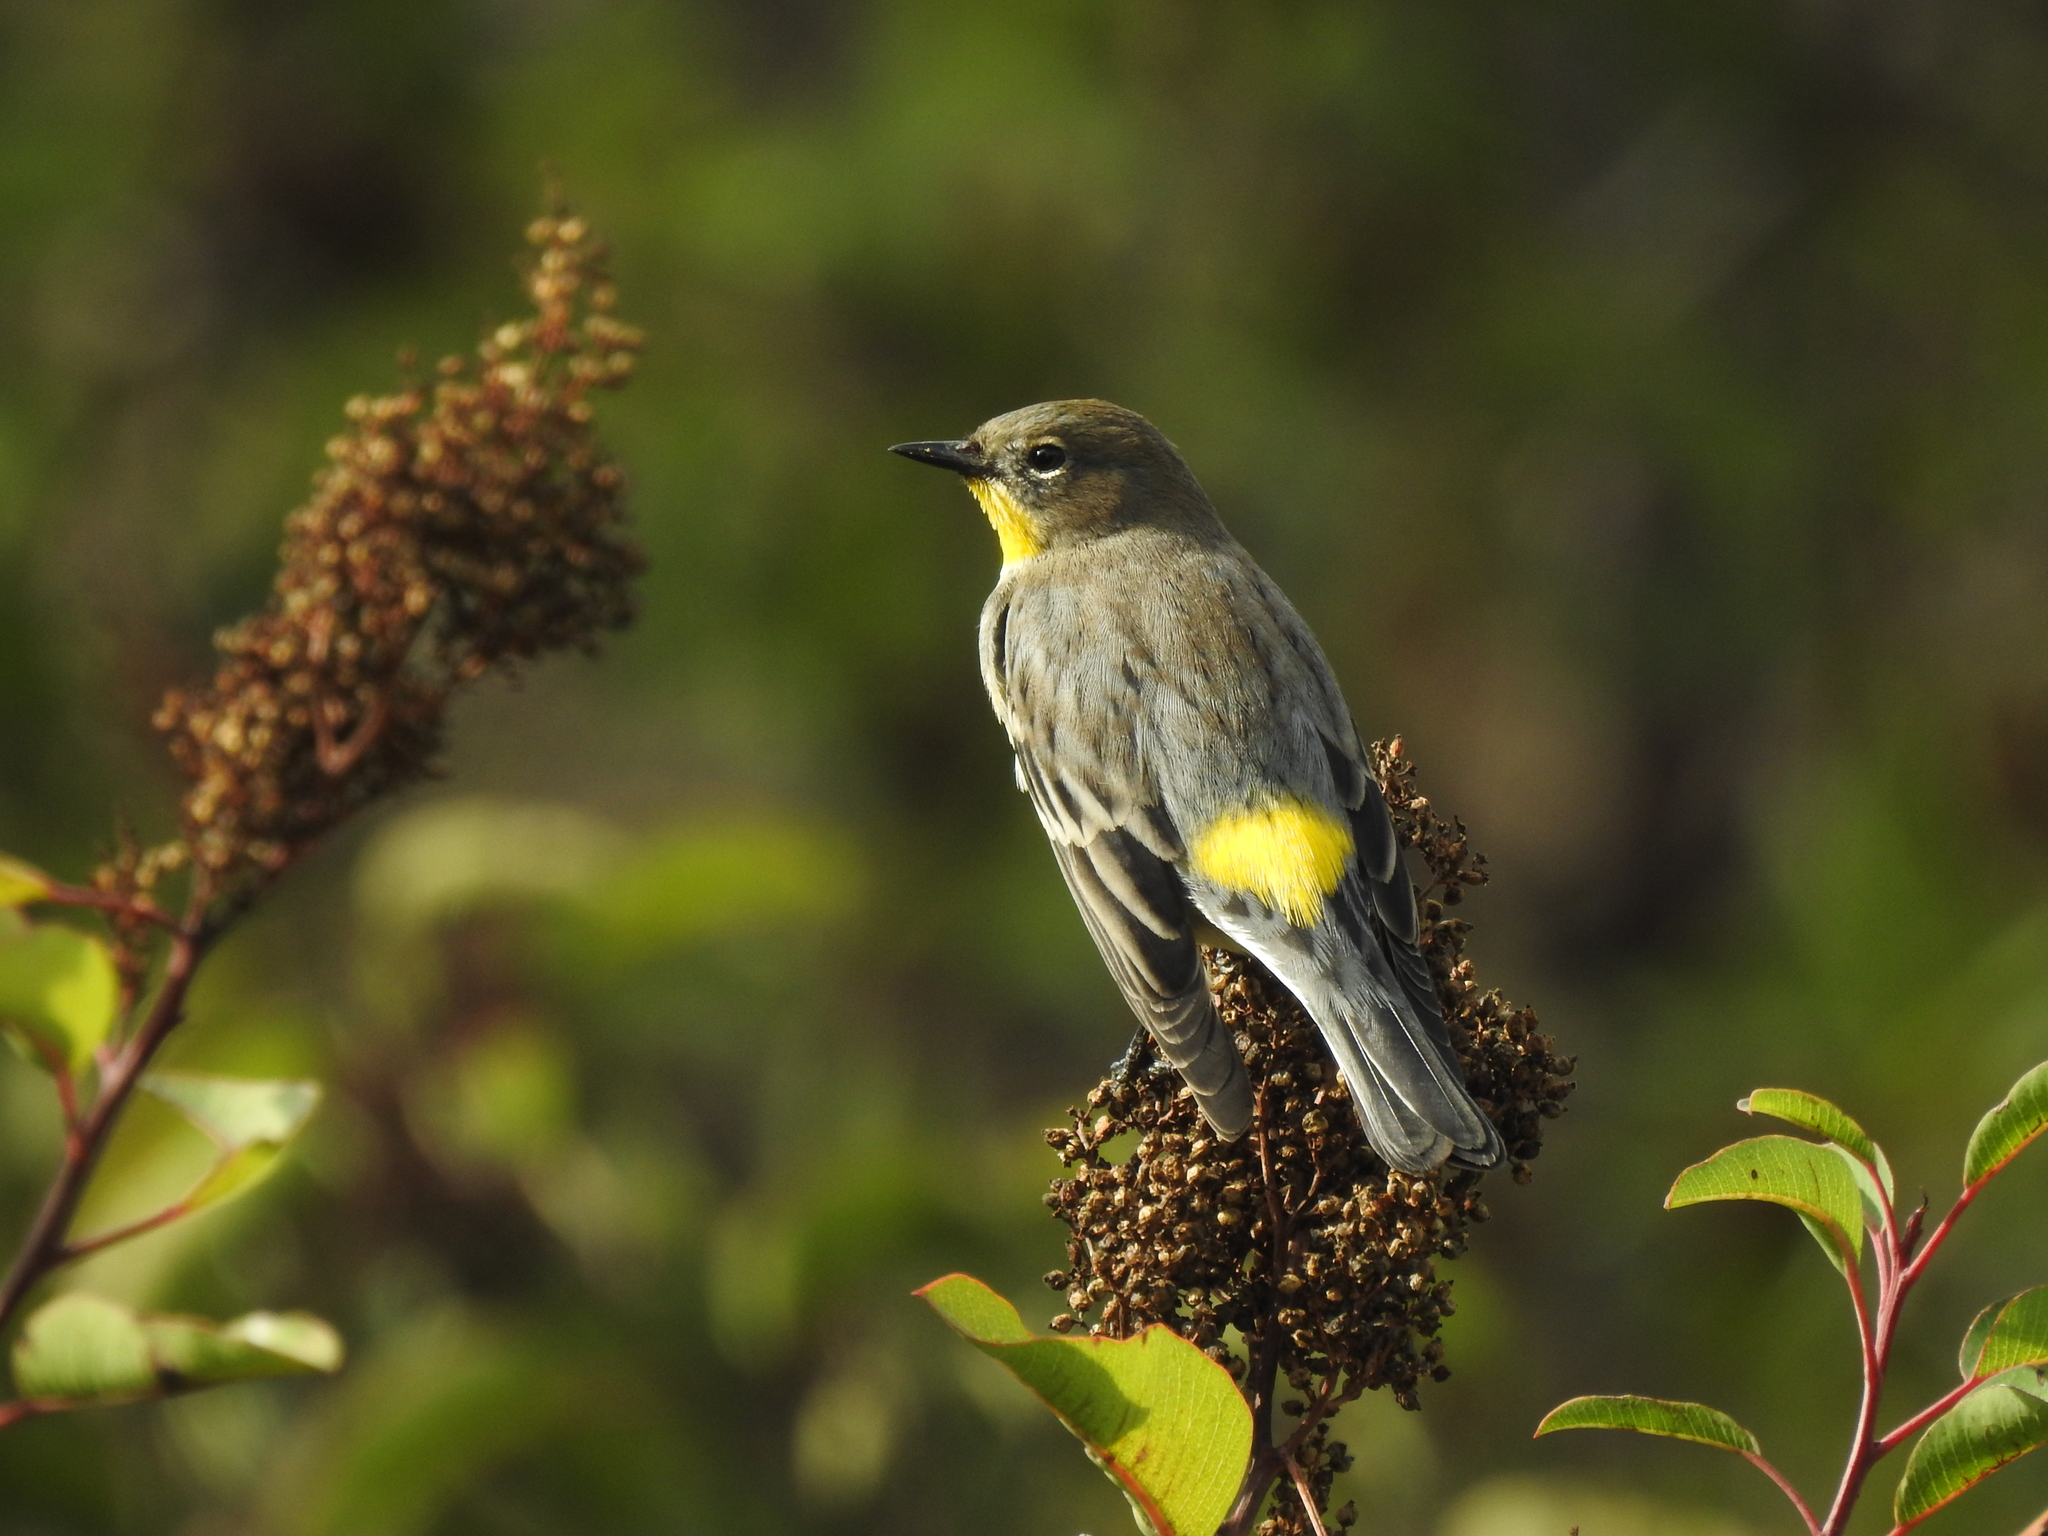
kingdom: Animalia
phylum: Chordata
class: Aves
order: Passeriformes
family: Parulidae
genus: Setophaga
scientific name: Setophaga coronata
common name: Myrtle warbler
